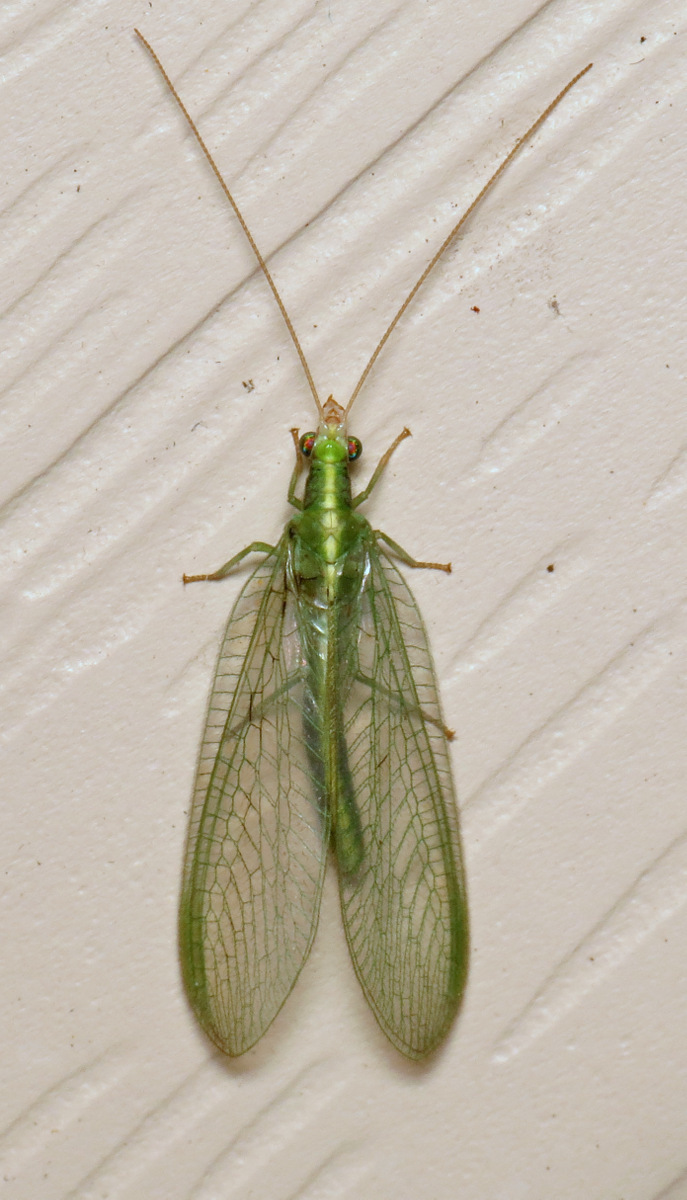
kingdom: Animalia
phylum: Arthropoda
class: Insecta
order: Neuroptera
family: Chrysopidae
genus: Chrysoperla
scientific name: Chrysoperla
